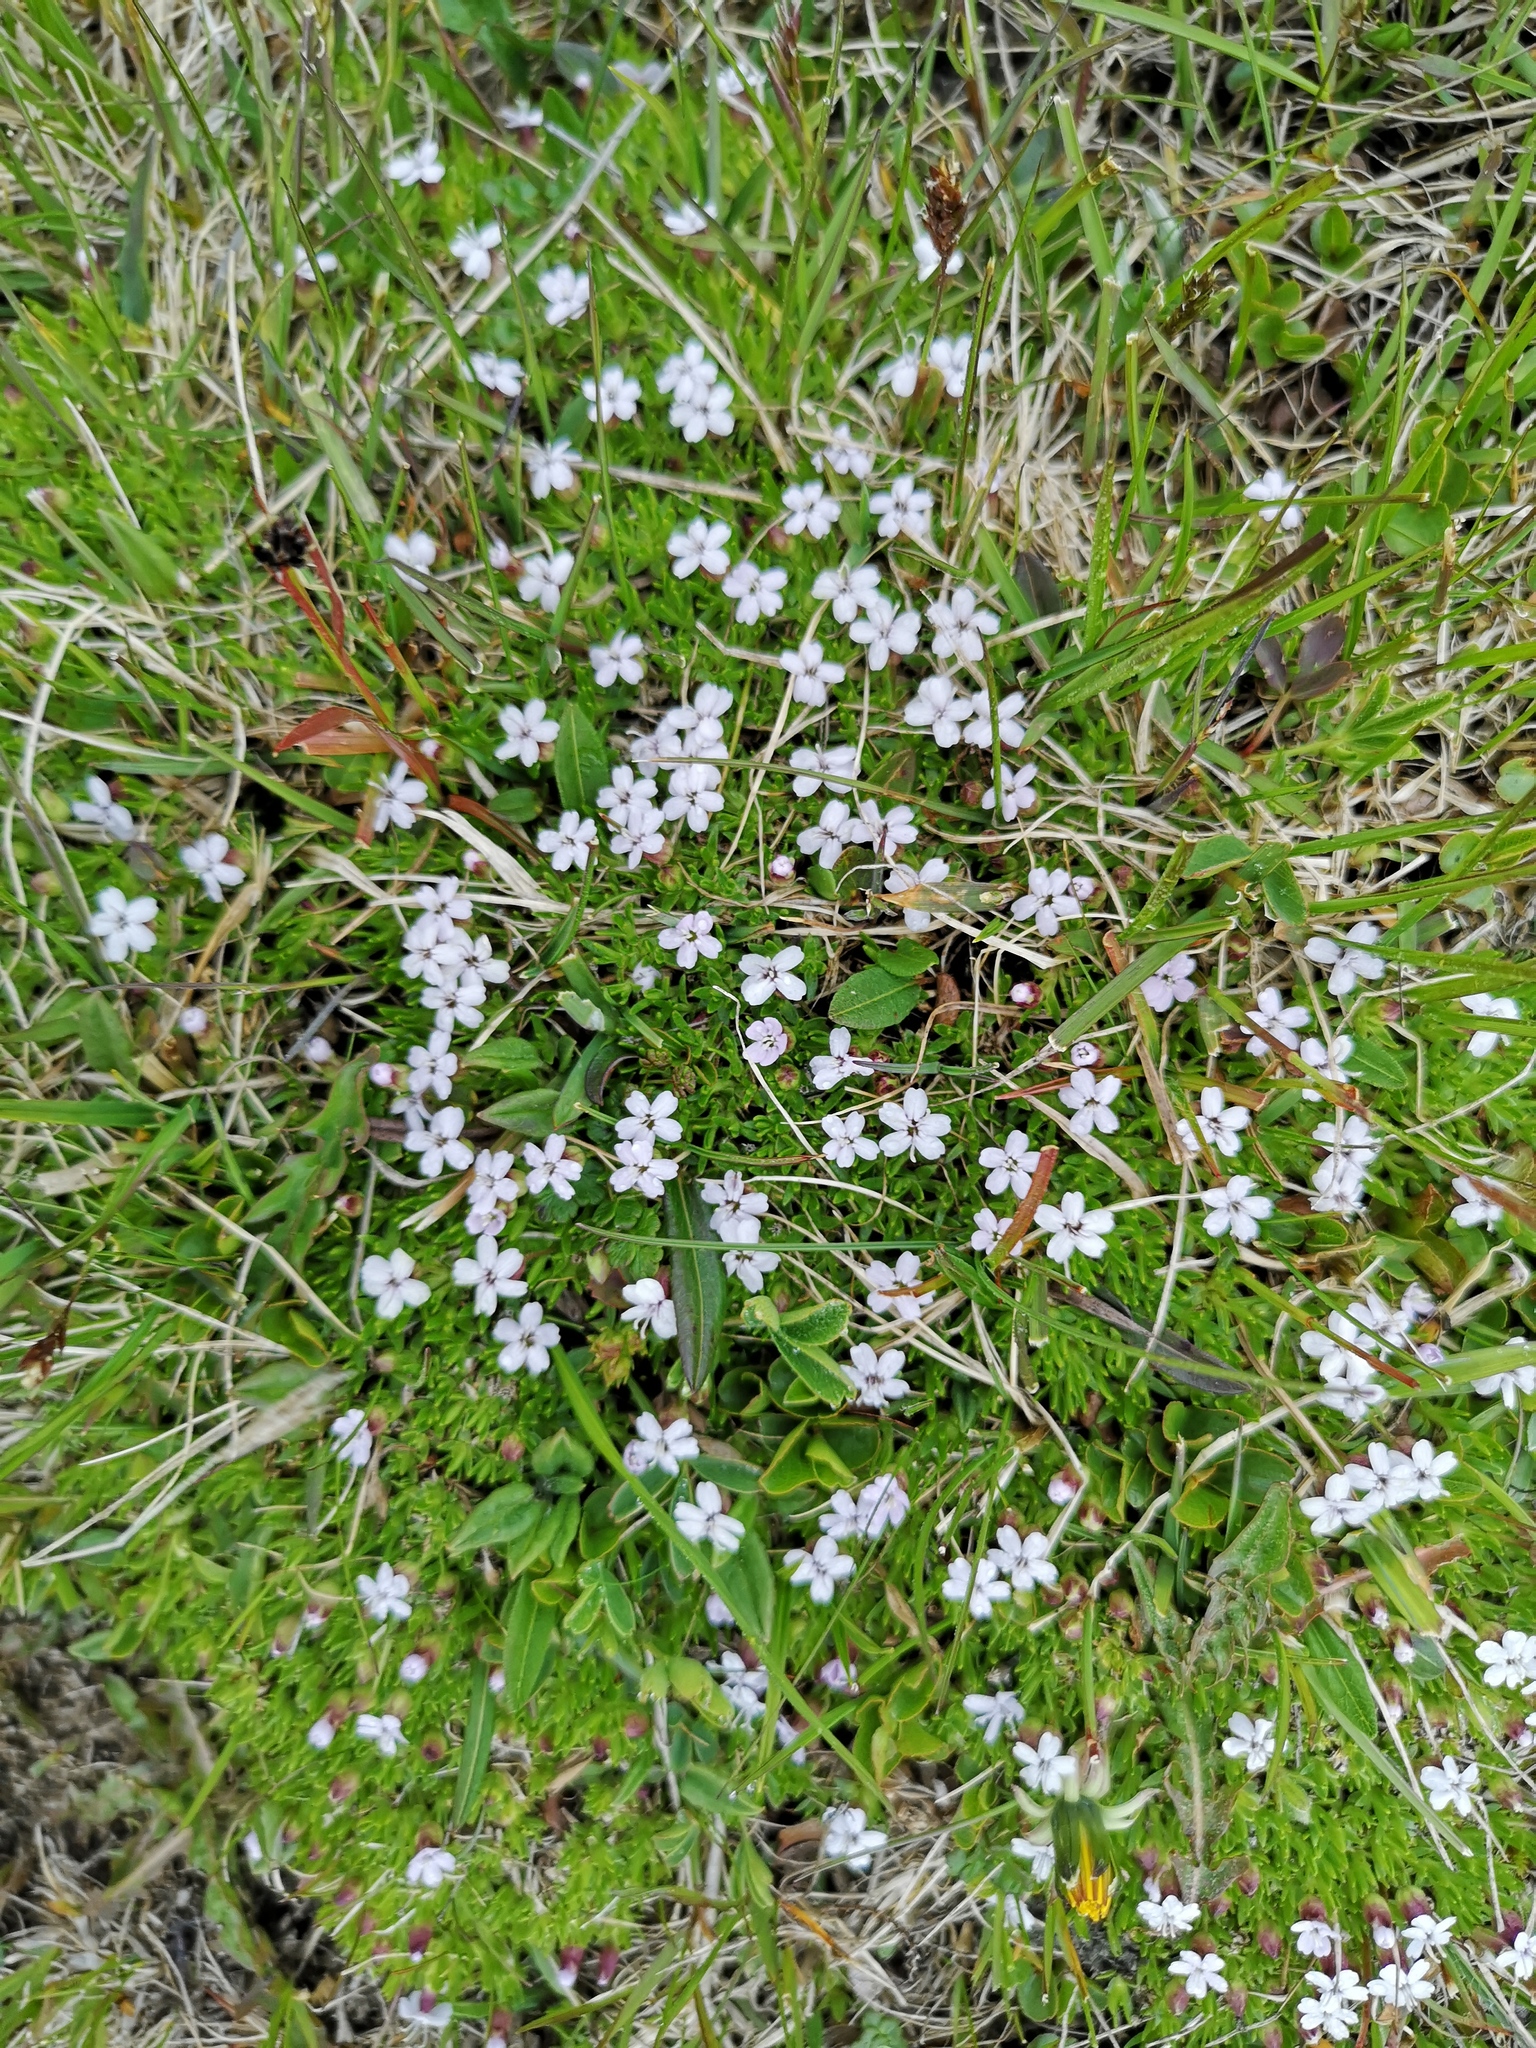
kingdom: Plantae
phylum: Tracheophyta
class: Magnoliopsida
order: Caryophyllales
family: Caryophyllaceae
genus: Silene
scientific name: Silene acaulis
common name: Moss campion
